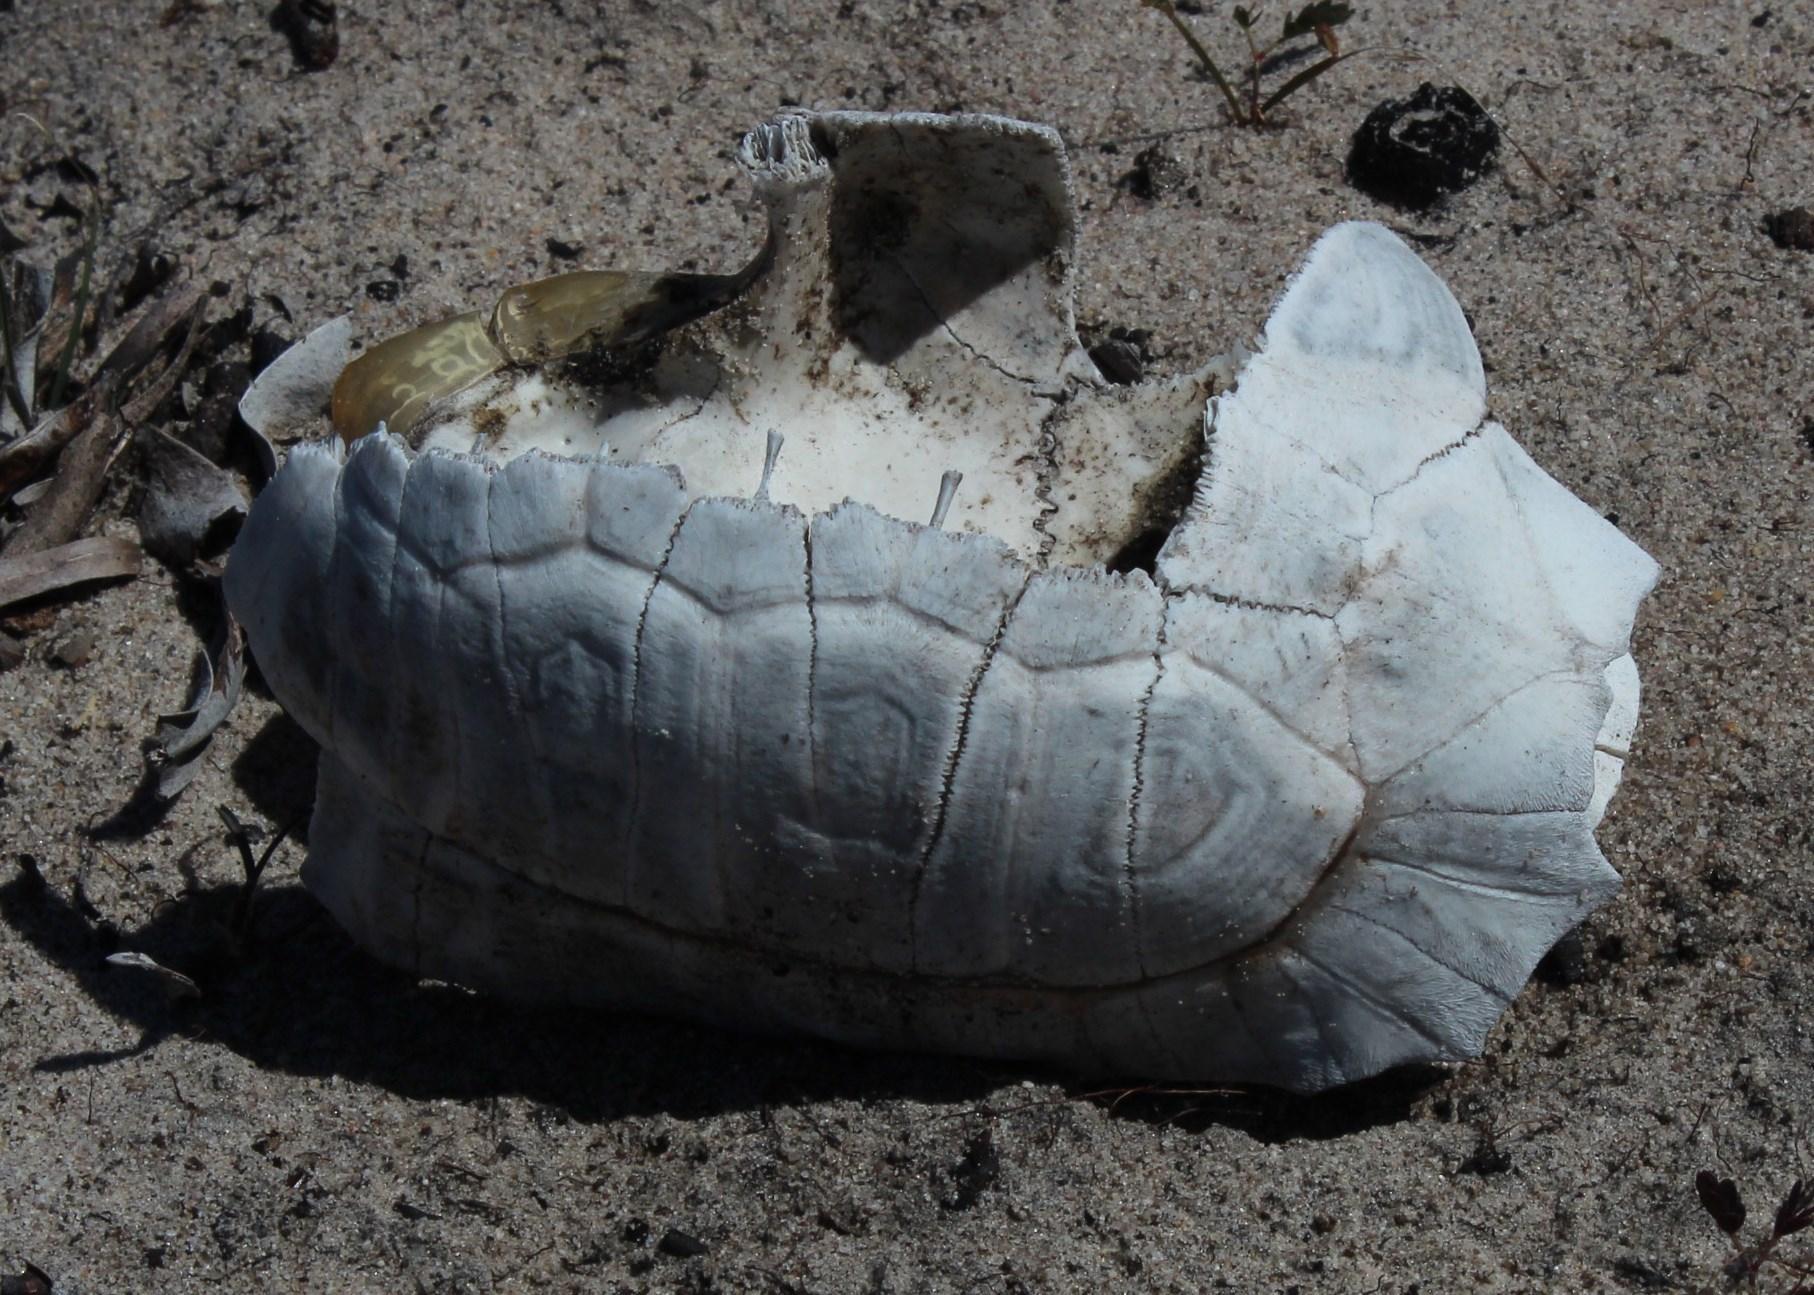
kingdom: Animalia
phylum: Chordata
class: Testudines
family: Testudinidae
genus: Chersina
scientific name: Chersina angulata
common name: South african bowsprit tortoise
